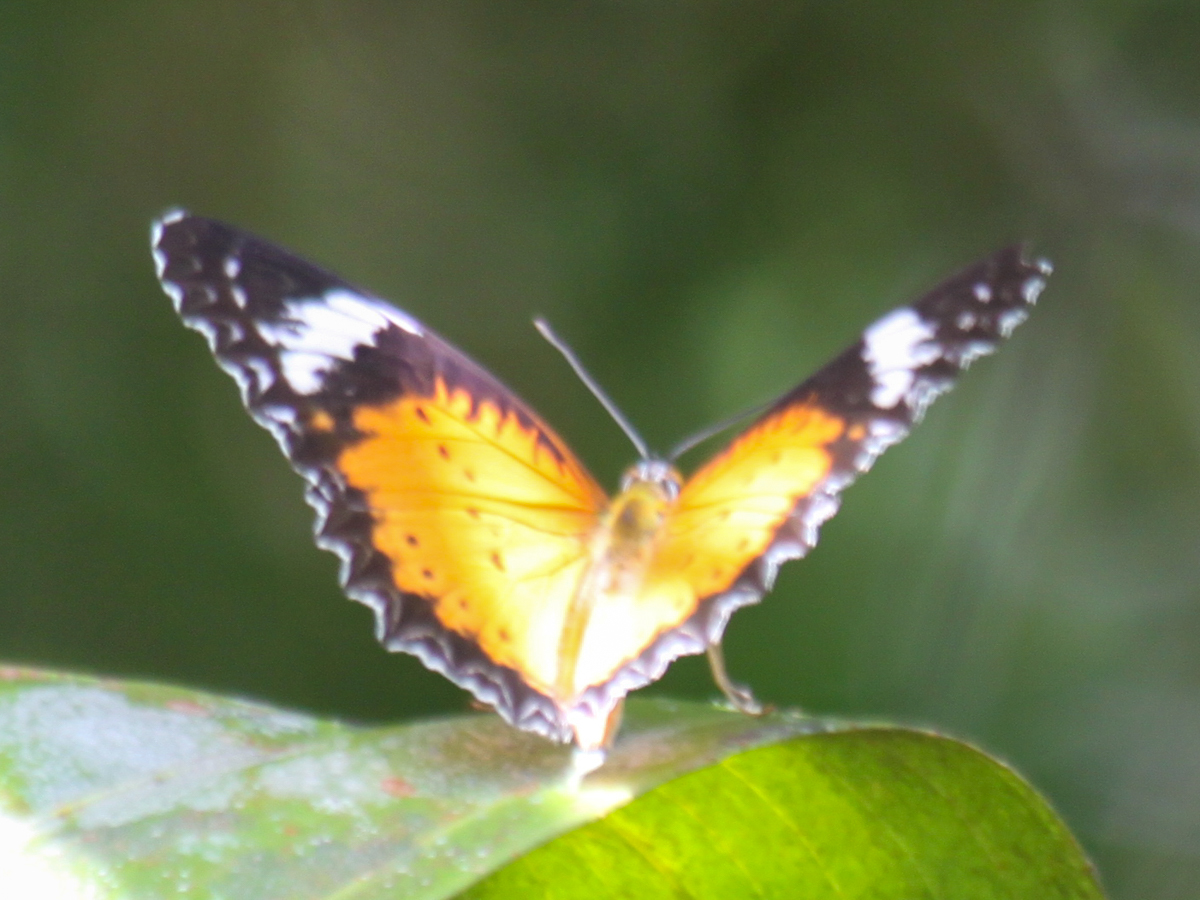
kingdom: Animalia
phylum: Arthropoda
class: Insecta
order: Lepidoptera
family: Nymphalidae
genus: Cethosia
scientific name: Cethosia cyane
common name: Leopard lacewing butterfly
